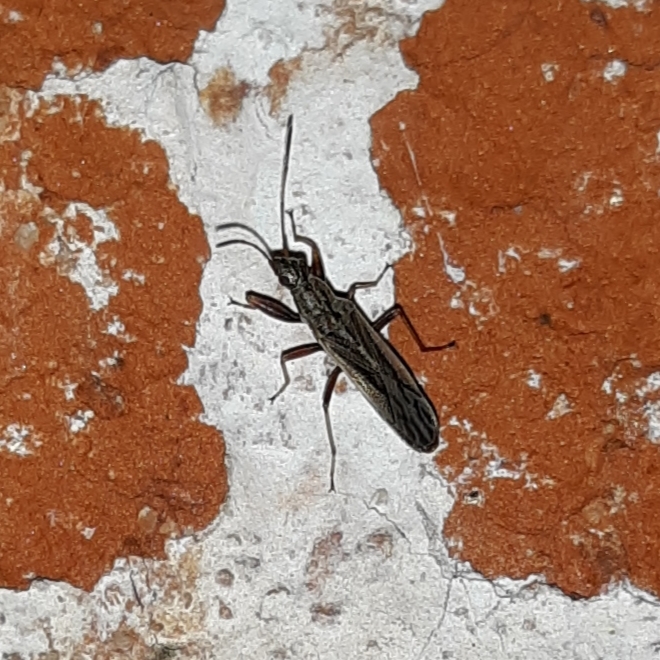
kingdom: Animalia
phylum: Arthropoda
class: Insecta
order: Hemiptera
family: Rhyparochromidae
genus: Paromius
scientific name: Paromius longulus
